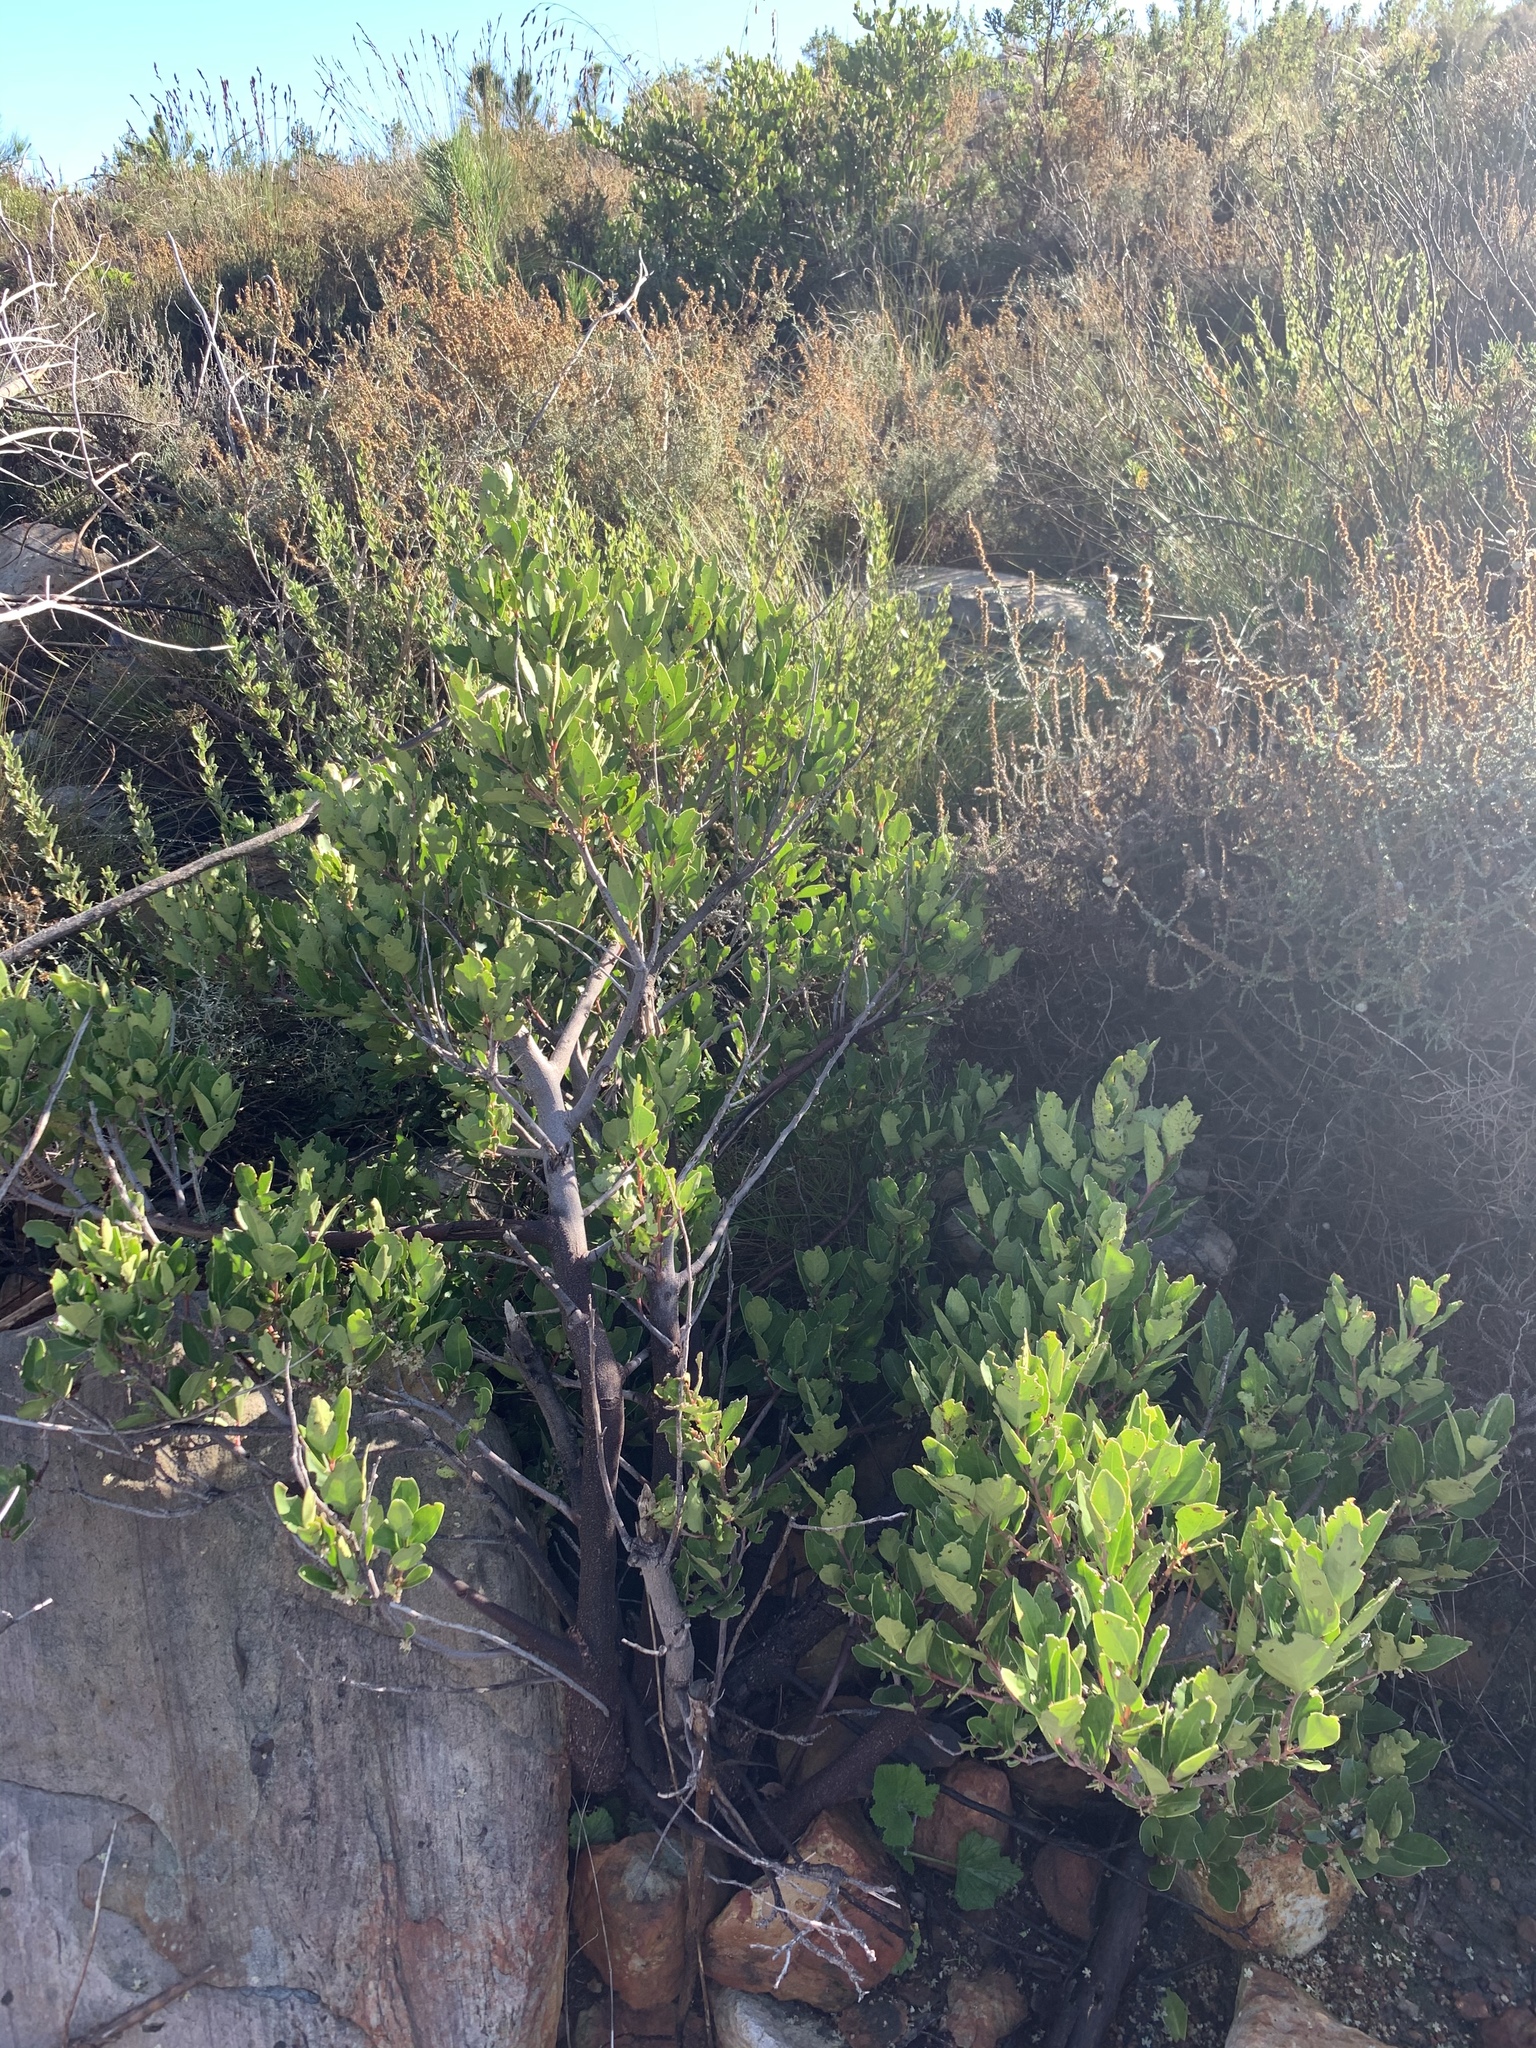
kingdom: Plantae
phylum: Tracheophyta
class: Magnoliopsida
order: Celastrales
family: Celastraceae
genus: Gymnosporia
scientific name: Gymnosporia laurina
